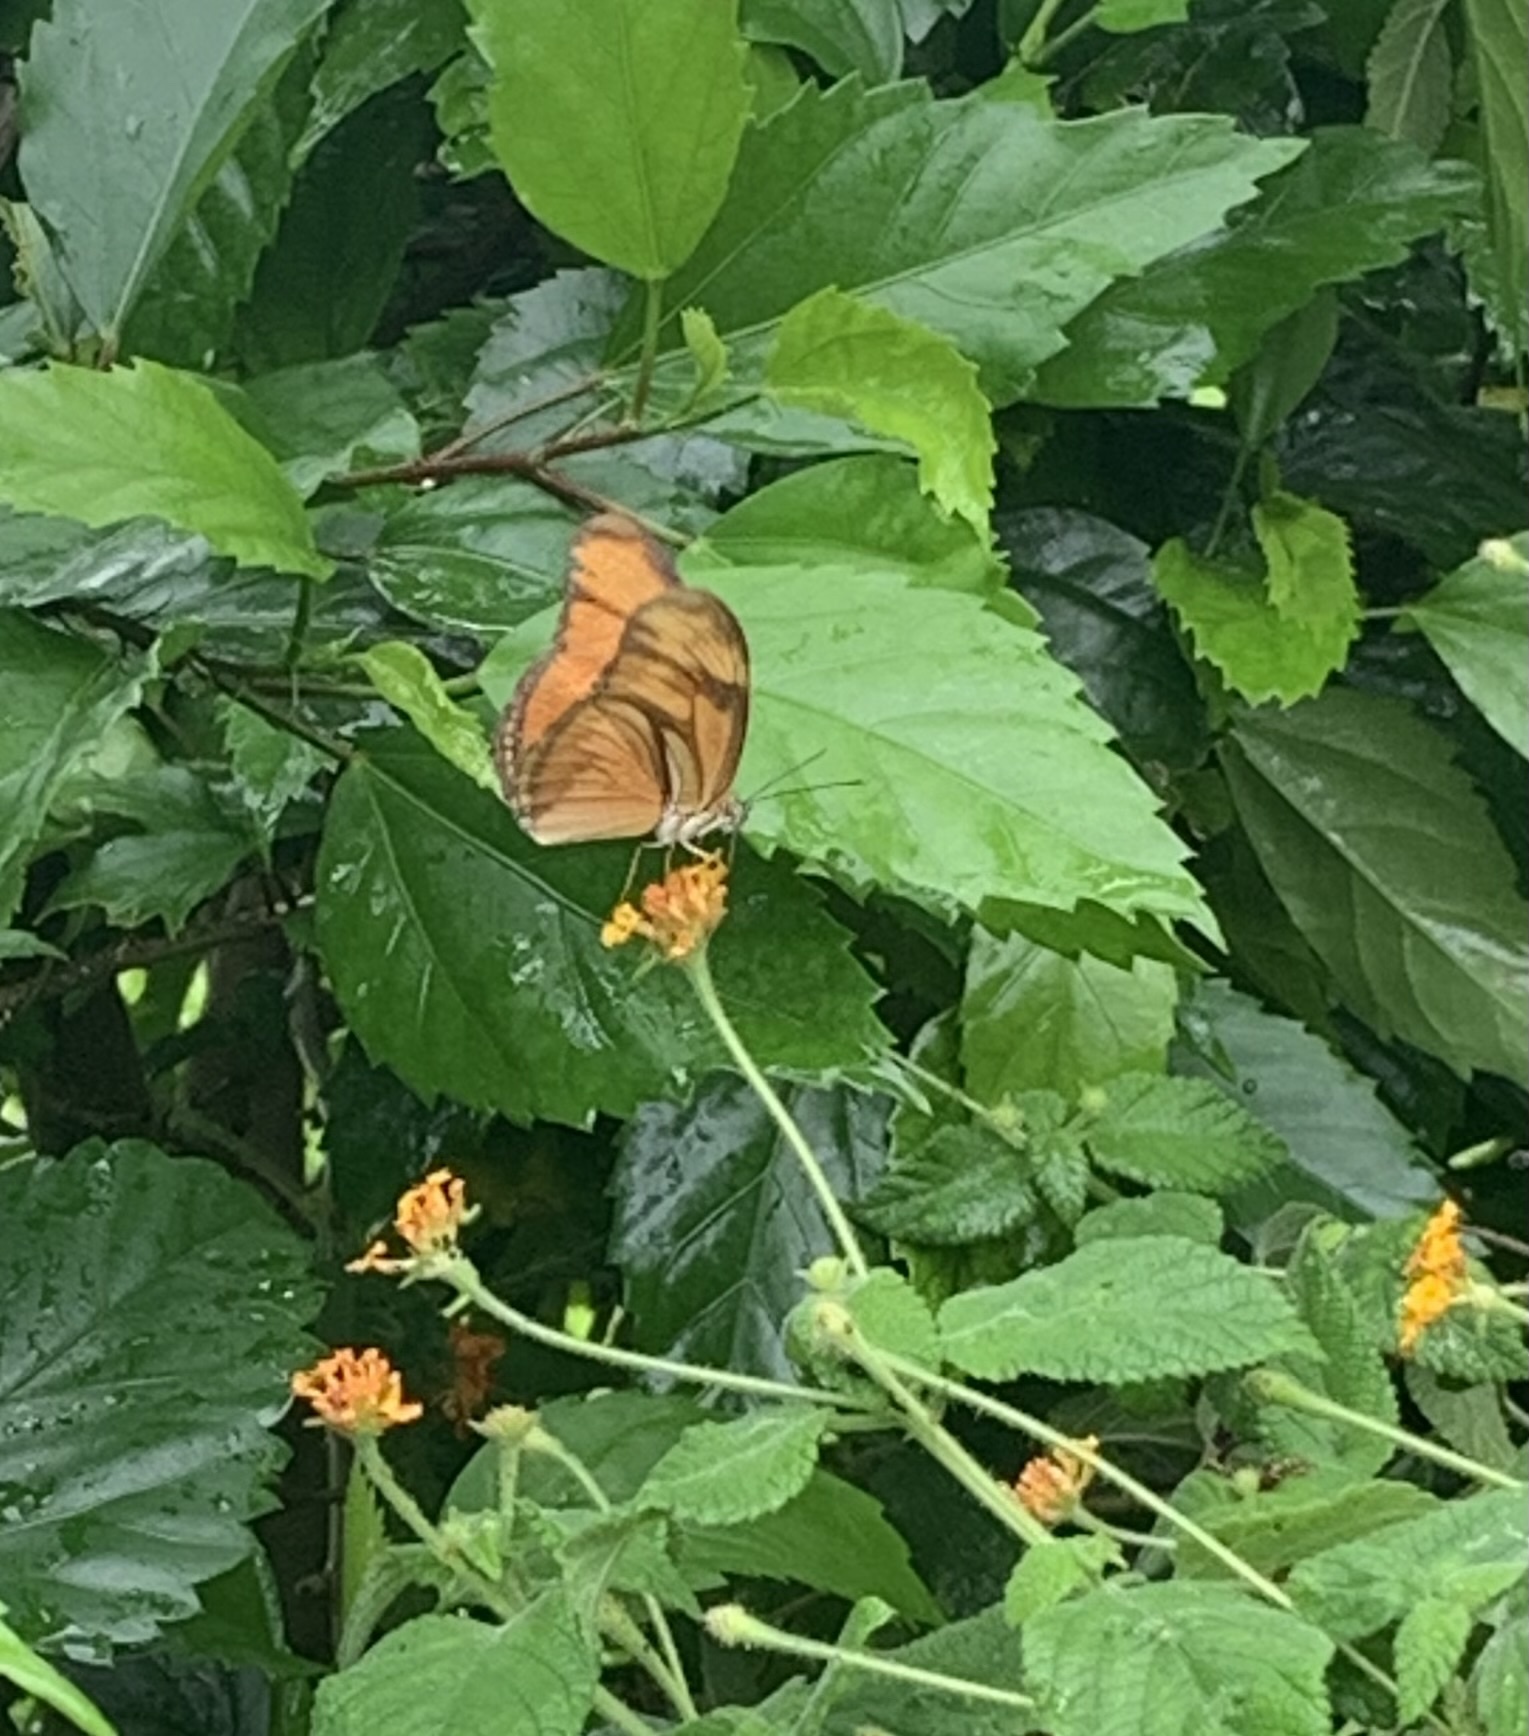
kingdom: Animalia
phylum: Arthropoda
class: Insecta
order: Lepidoptera
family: Nymphalidae
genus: Dryas
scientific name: Dryas iulia
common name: Flambeau
